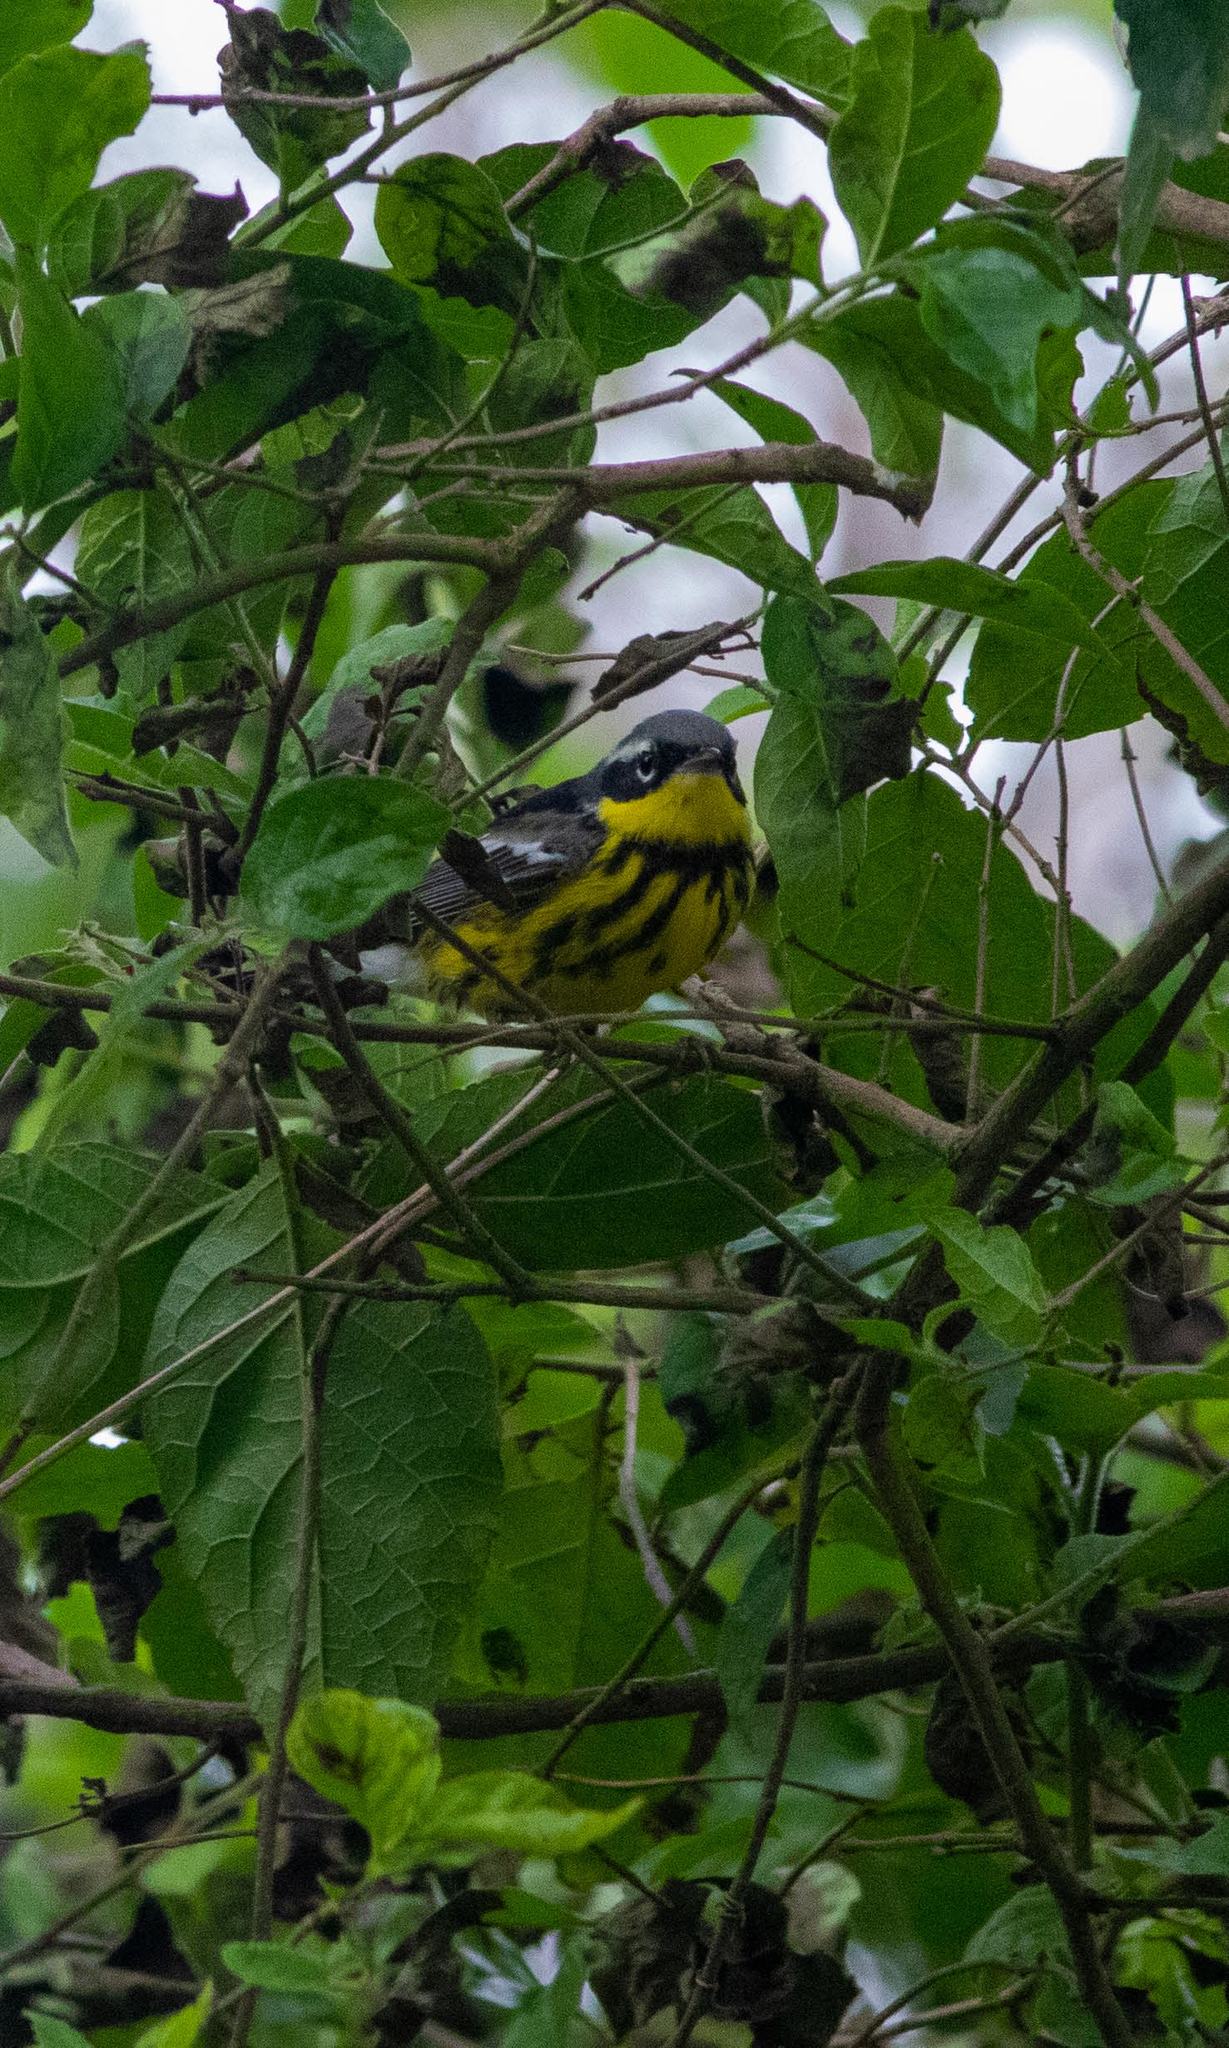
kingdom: Animalia
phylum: Chordata
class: Aves
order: Passeriformes
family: Parulidae
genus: Setophaga
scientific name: Setophaga magnolia
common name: Magnolia warbler
